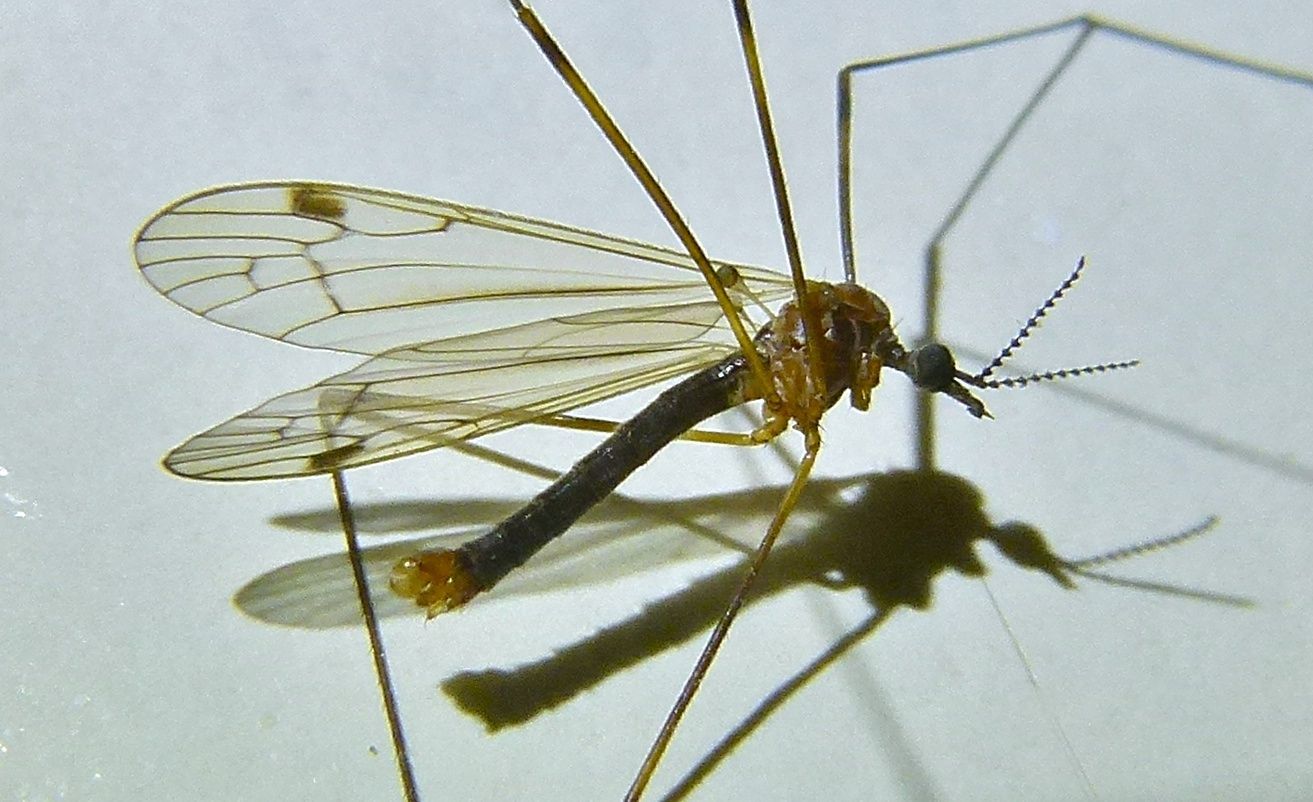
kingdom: Animalia
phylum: Arthropoda
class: Insecta
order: Diptera
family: Limoniidae
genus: Dicranomyia
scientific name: Dicranomyia cubitalis
